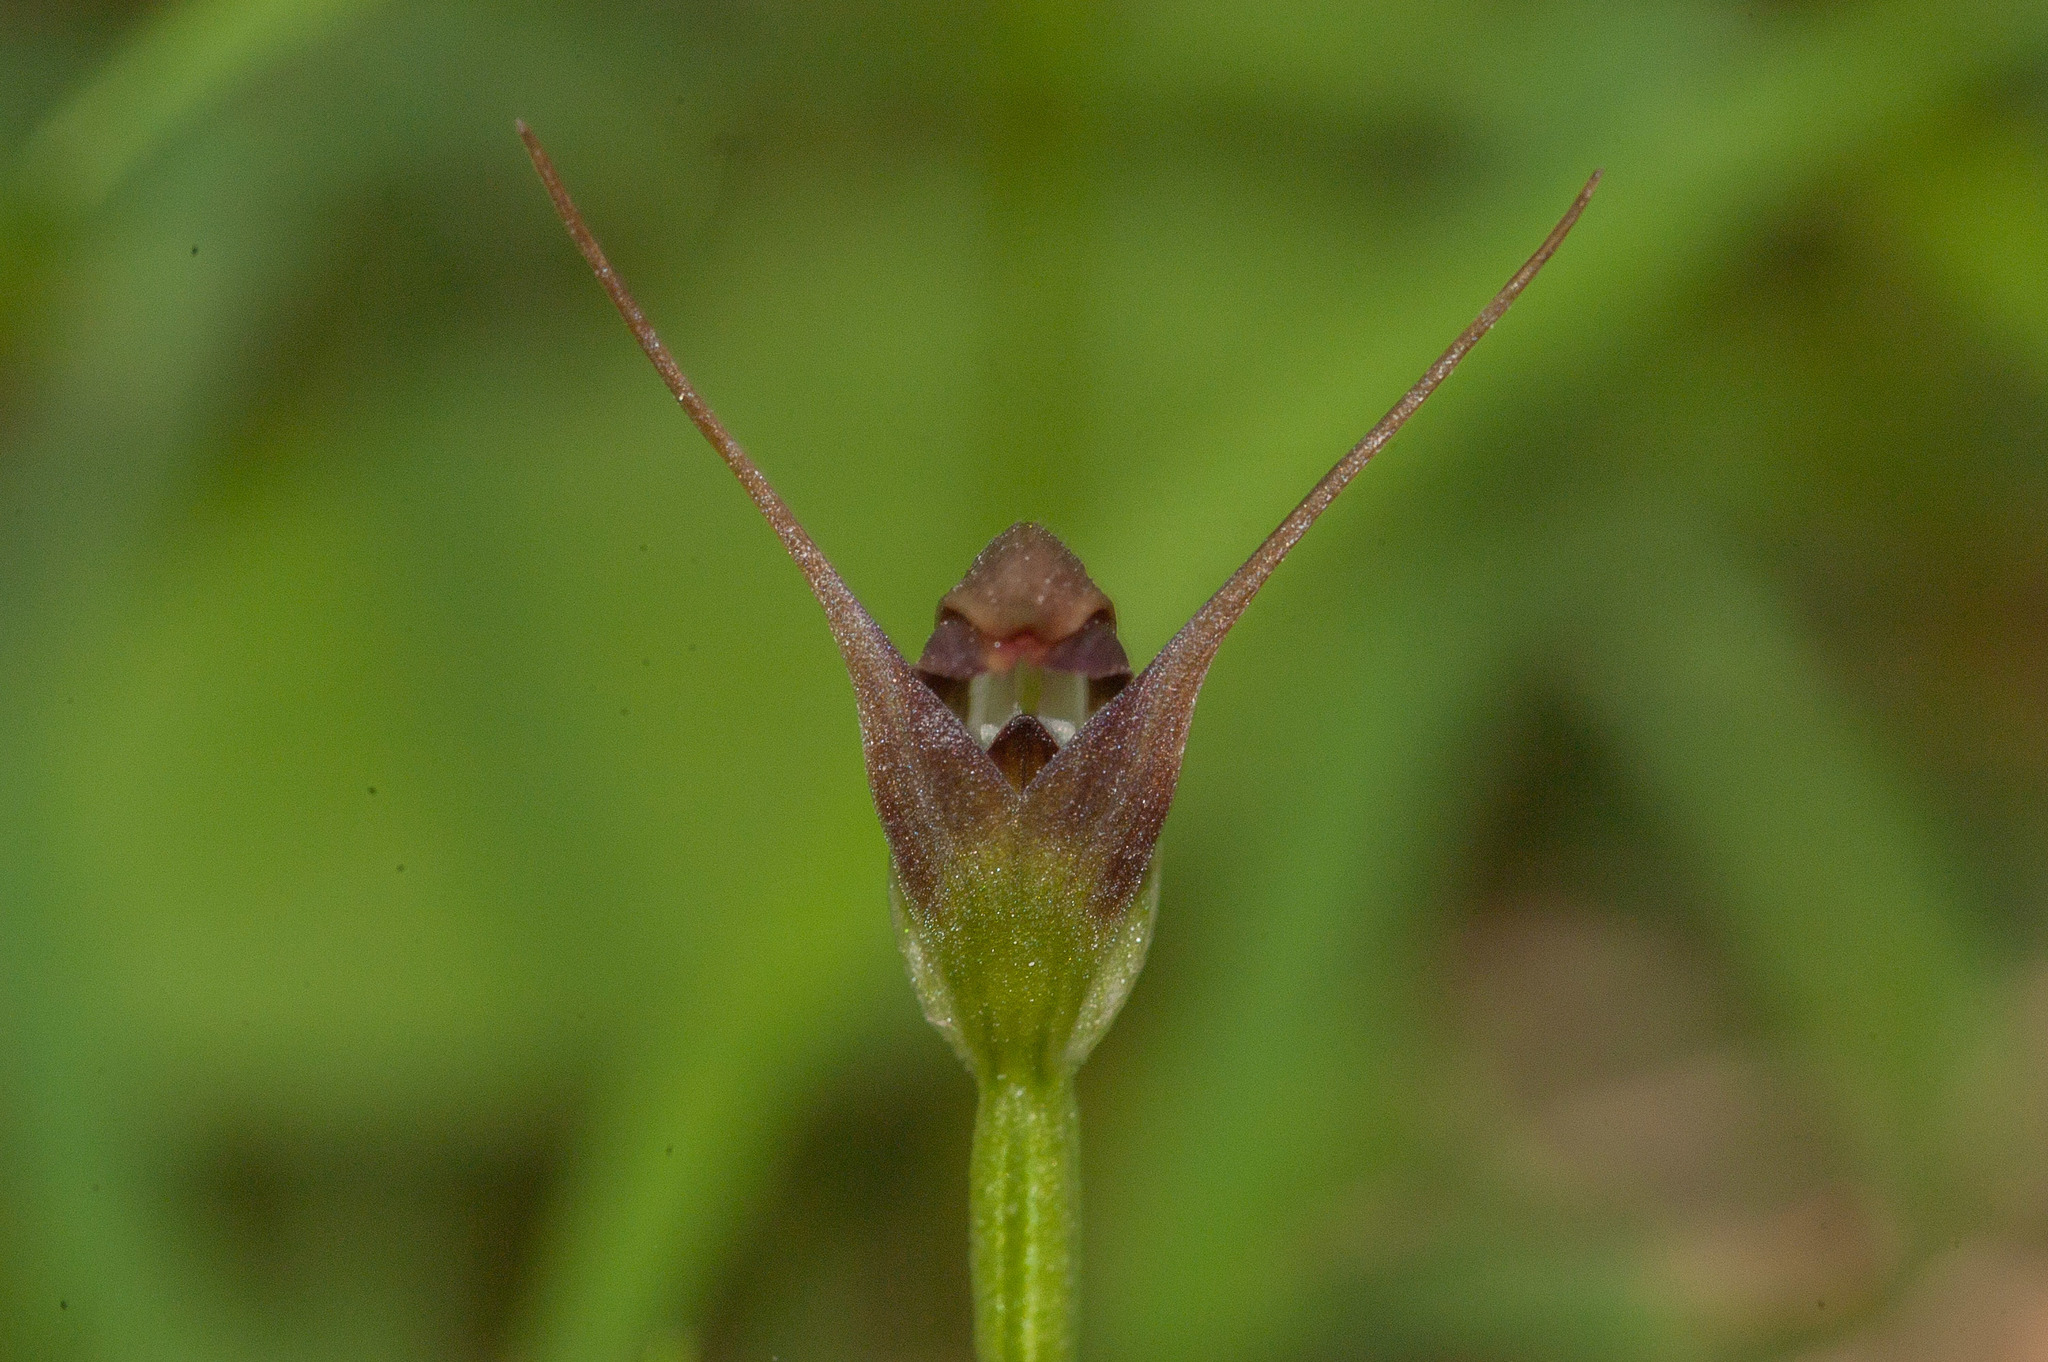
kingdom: Plantae
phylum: Tracheophyta
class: Liliopsida
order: Asparagales
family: Orchidaceae
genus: Pterostylis
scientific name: Pterostylis pedunculata
